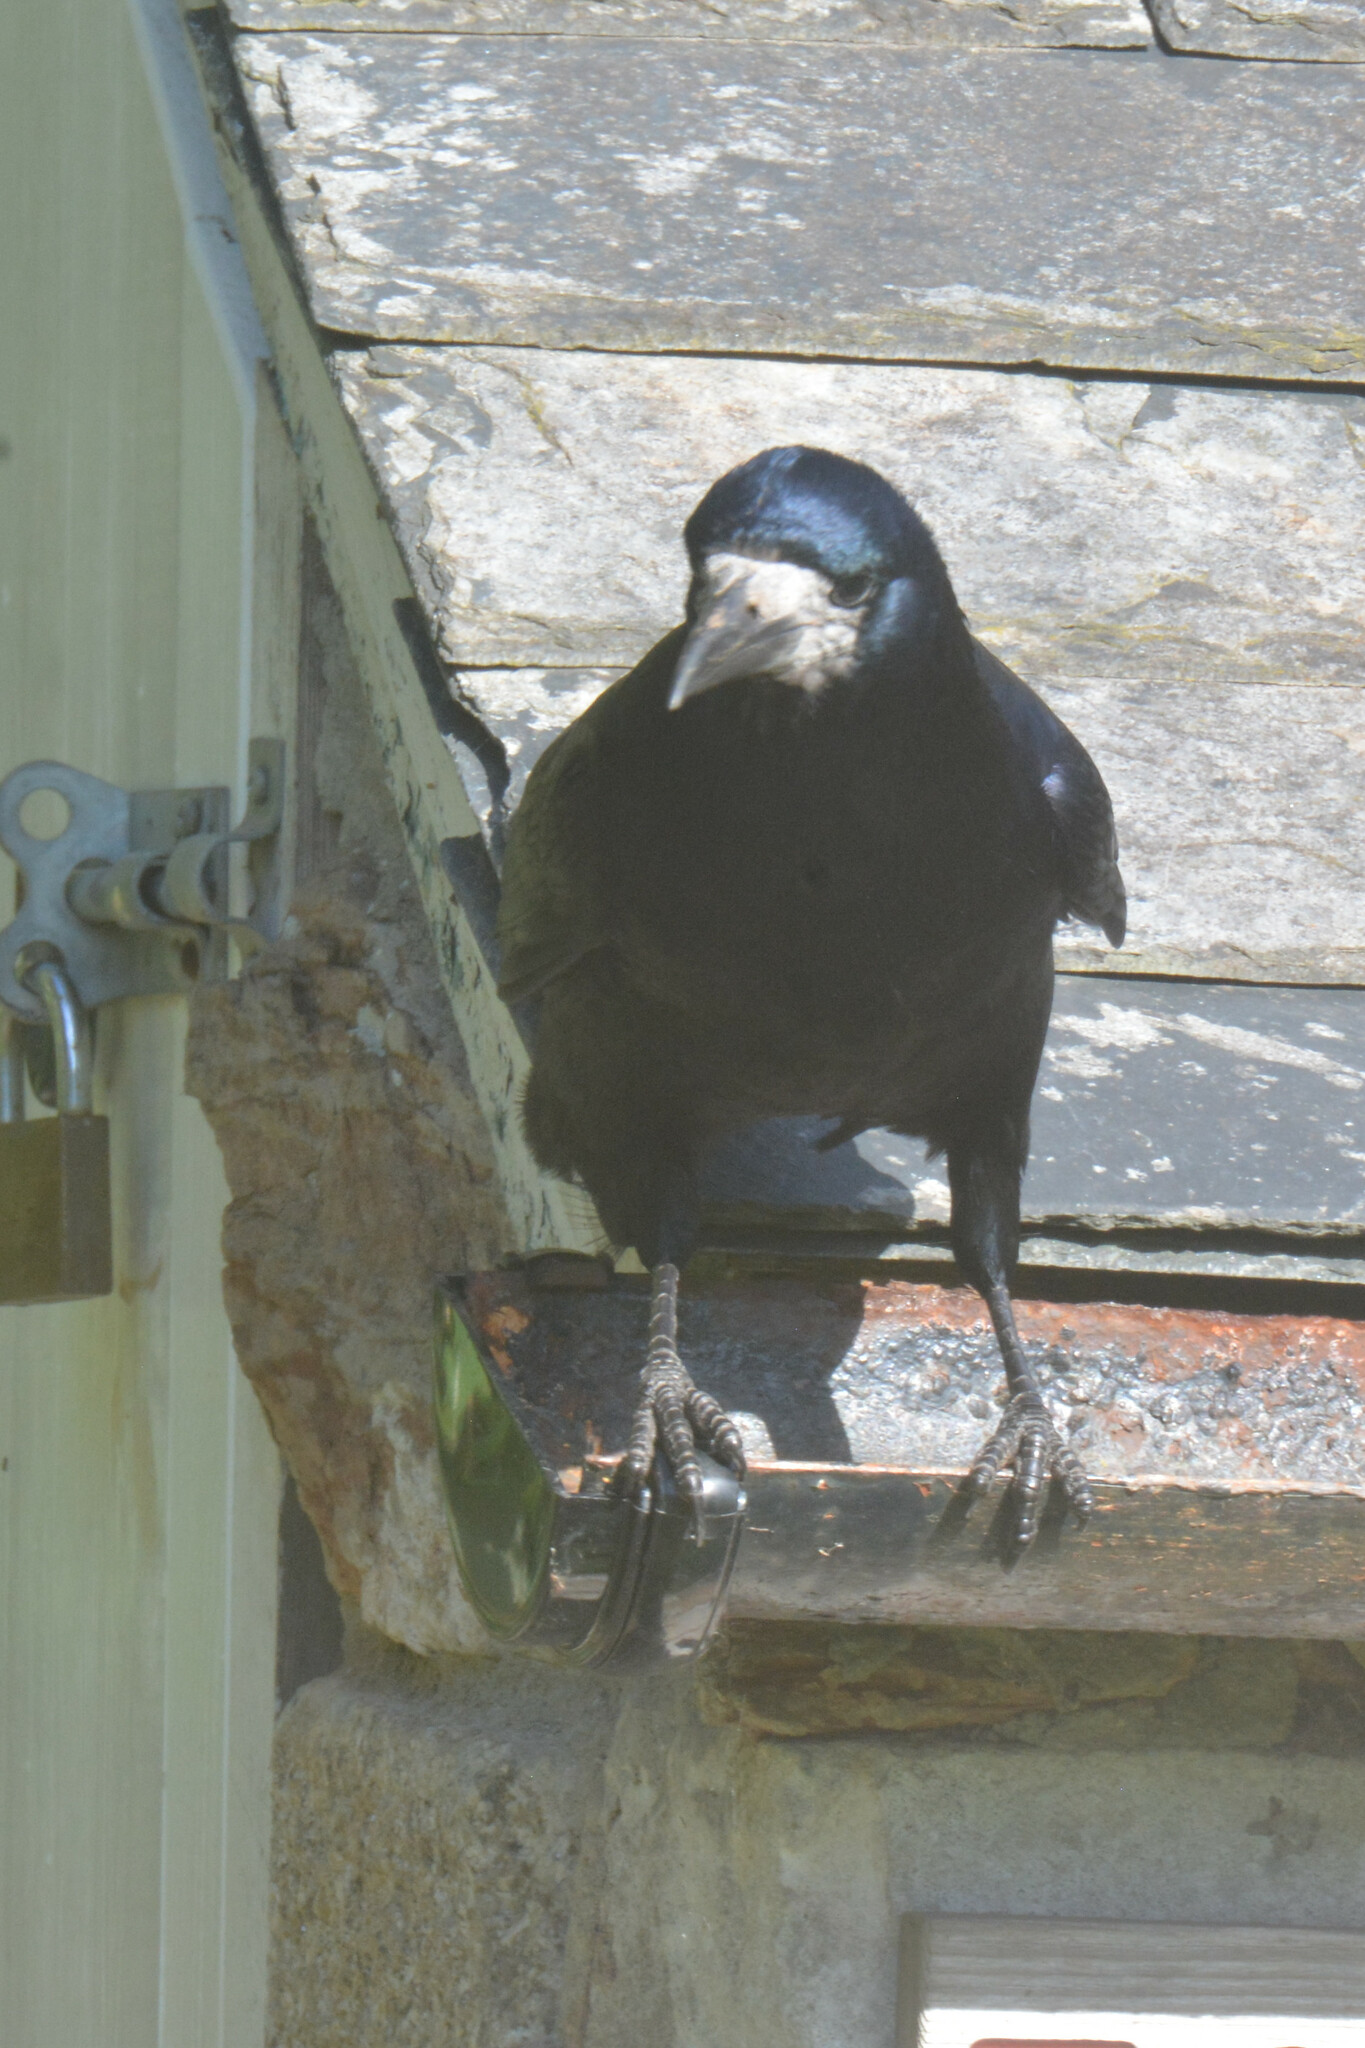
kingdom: Animalia
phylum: Chordata
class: Aves
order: Passeriformes
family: Corvidae
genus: Corvus
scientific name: Corvus frugilegus
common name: Rook
